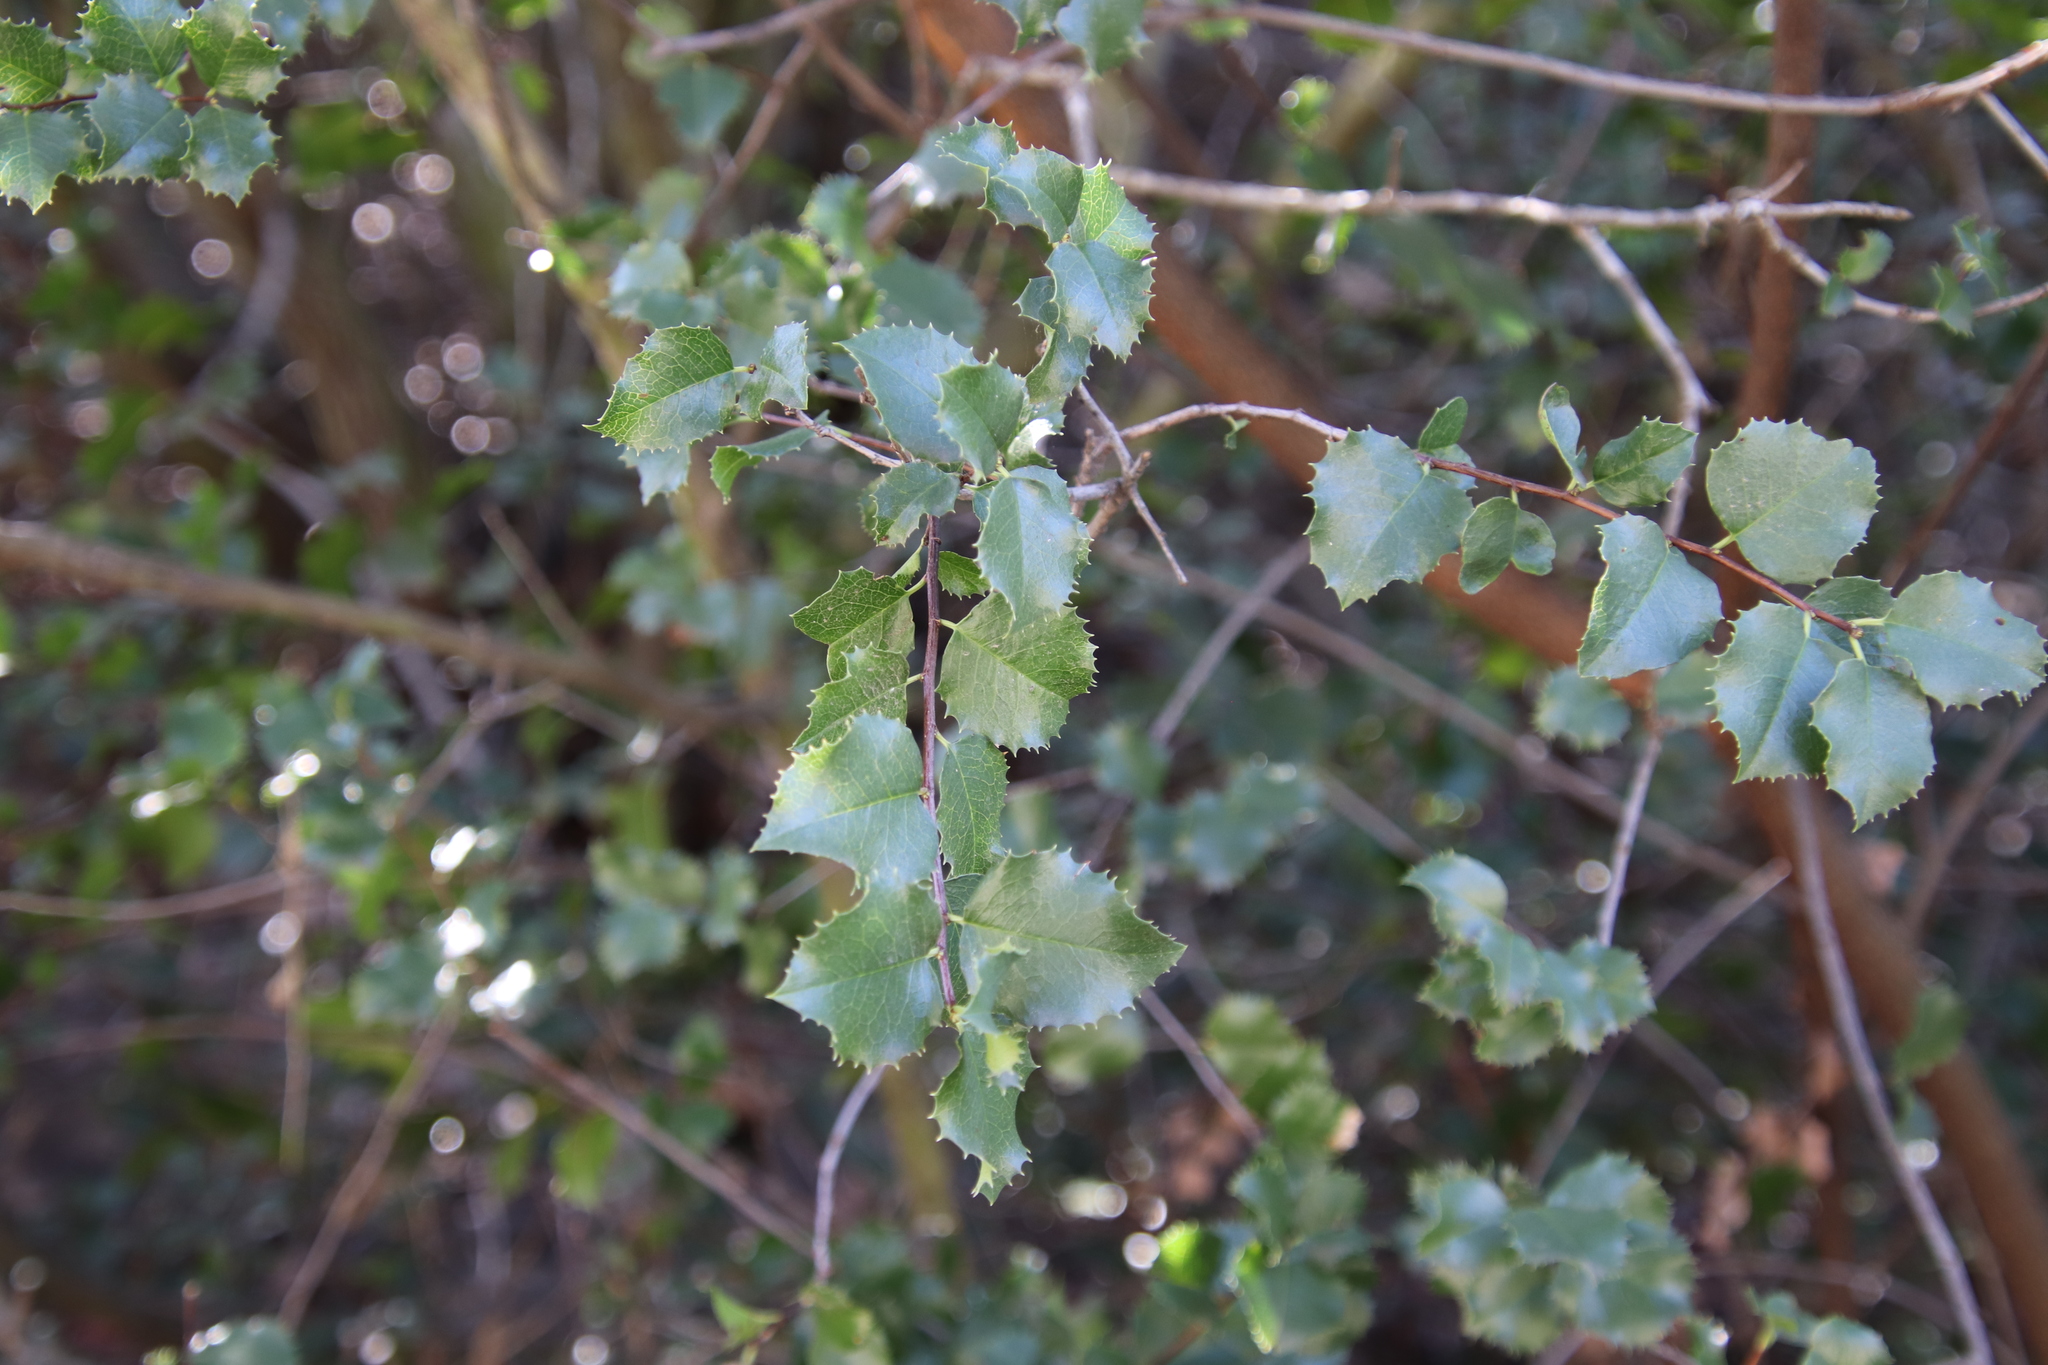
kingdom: Plantae
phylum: Tracheophyta
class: Magnoliopsida
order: Rosales
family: Rosaceae
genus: Prunus
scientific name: Prunus ilicifolia
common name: Hollyleaf cherry
